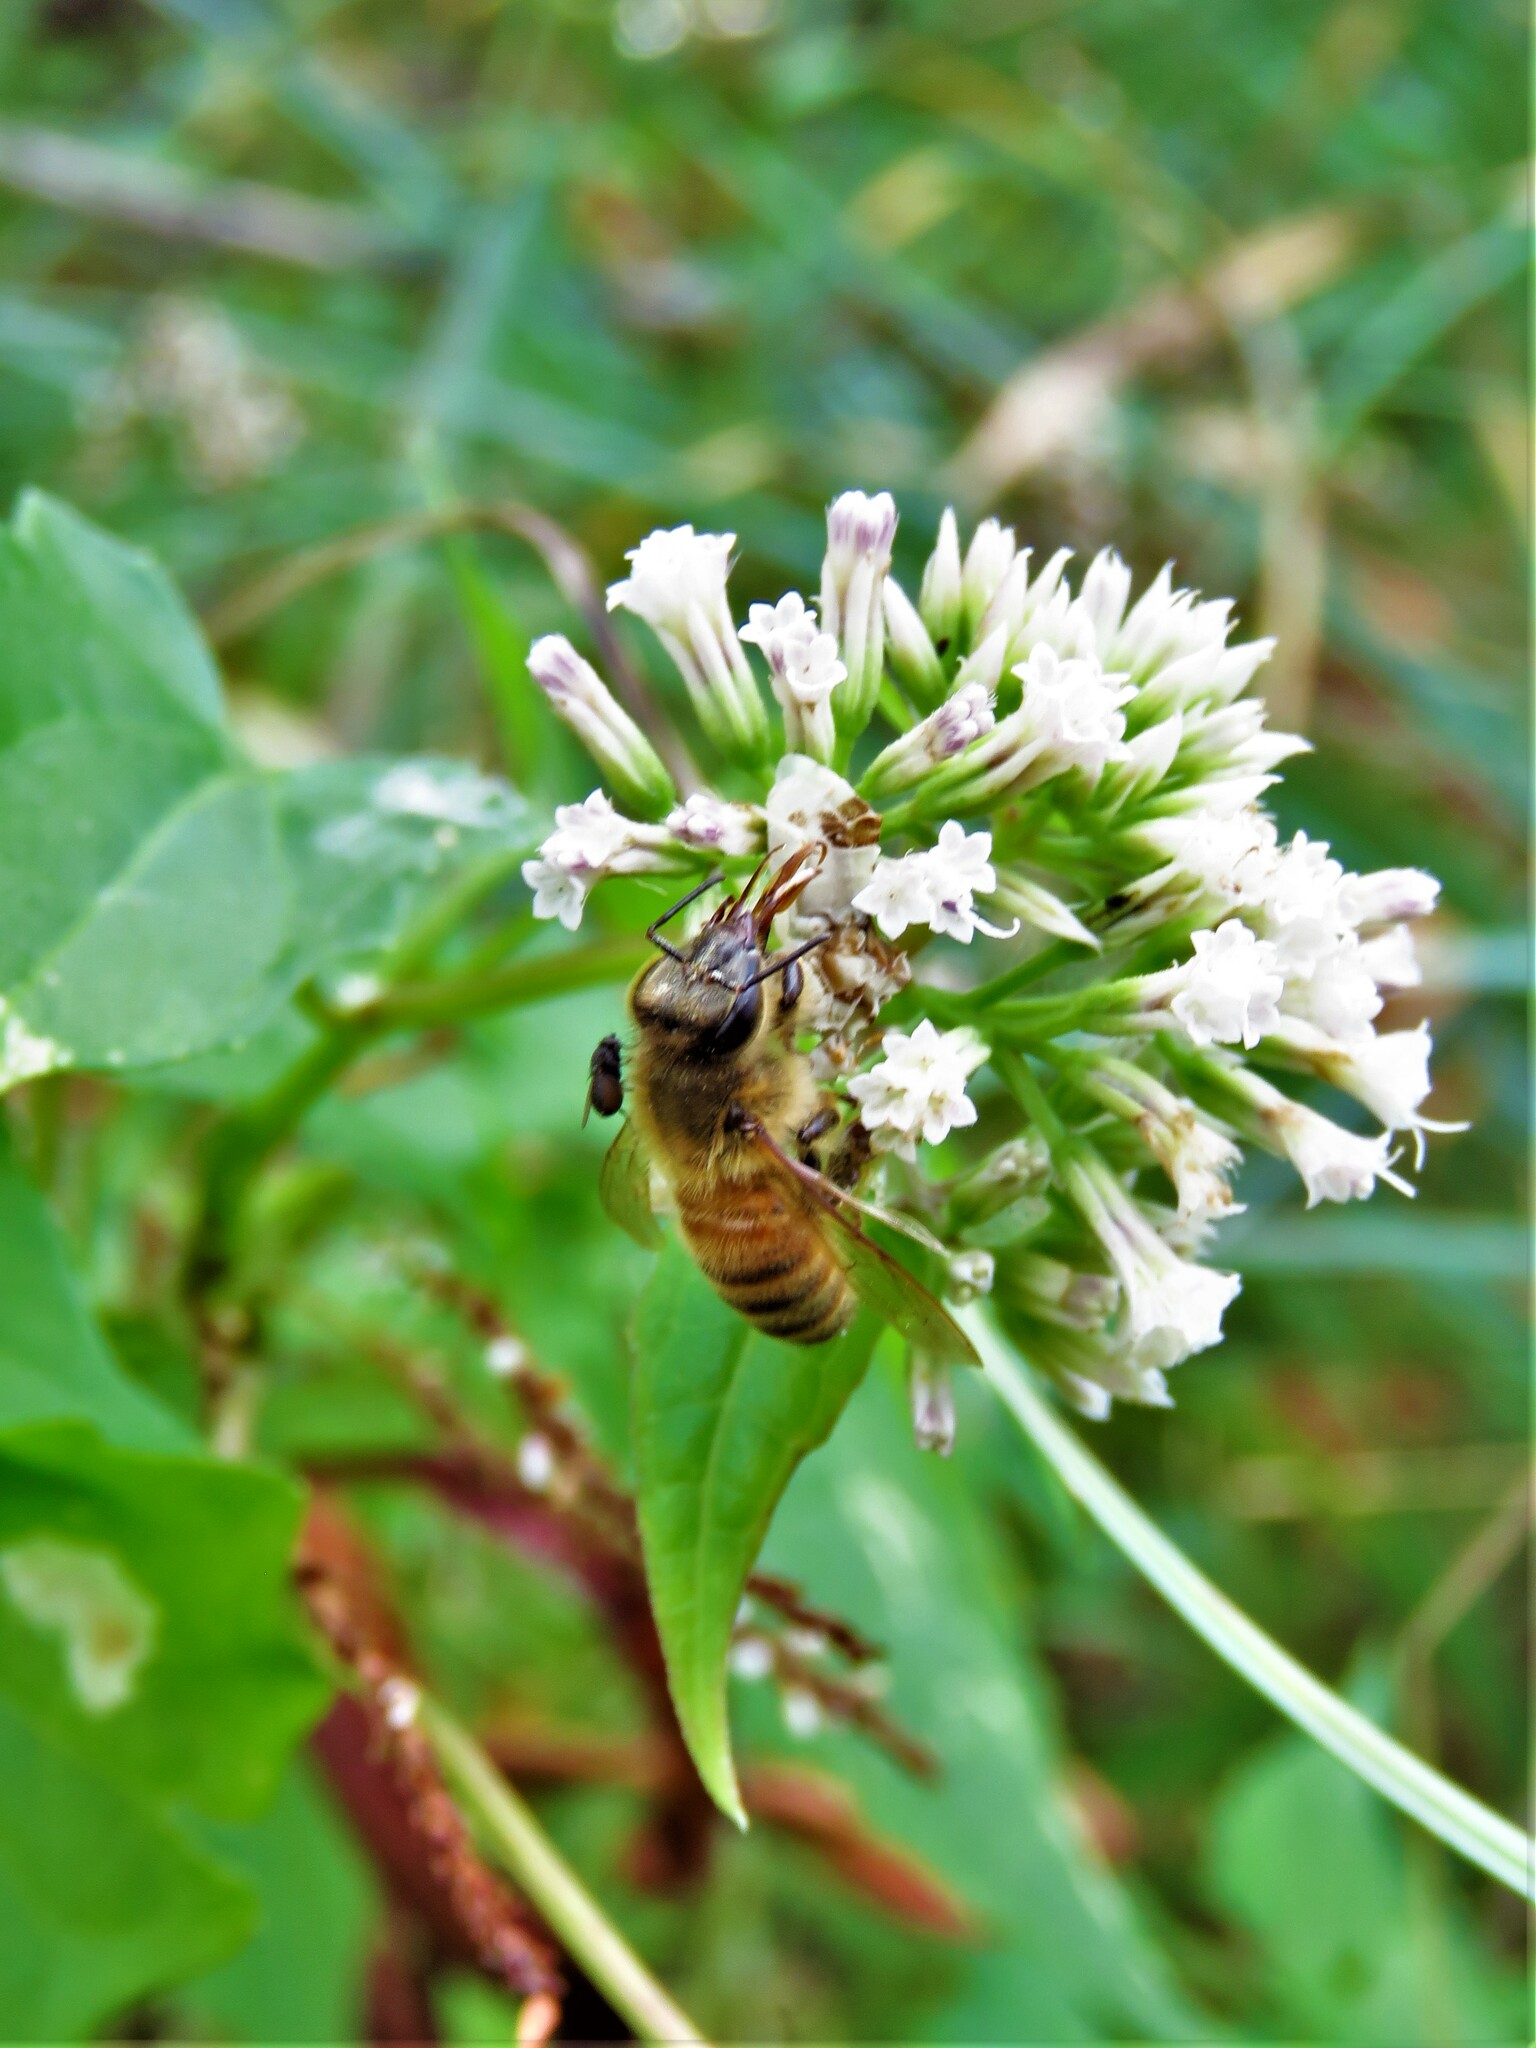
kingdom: Animalia
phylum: Arthropoda
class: Insecta
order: Hymenoptera
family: Apidae
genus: Apis
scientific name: Apis mellifera
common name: Honey bee
